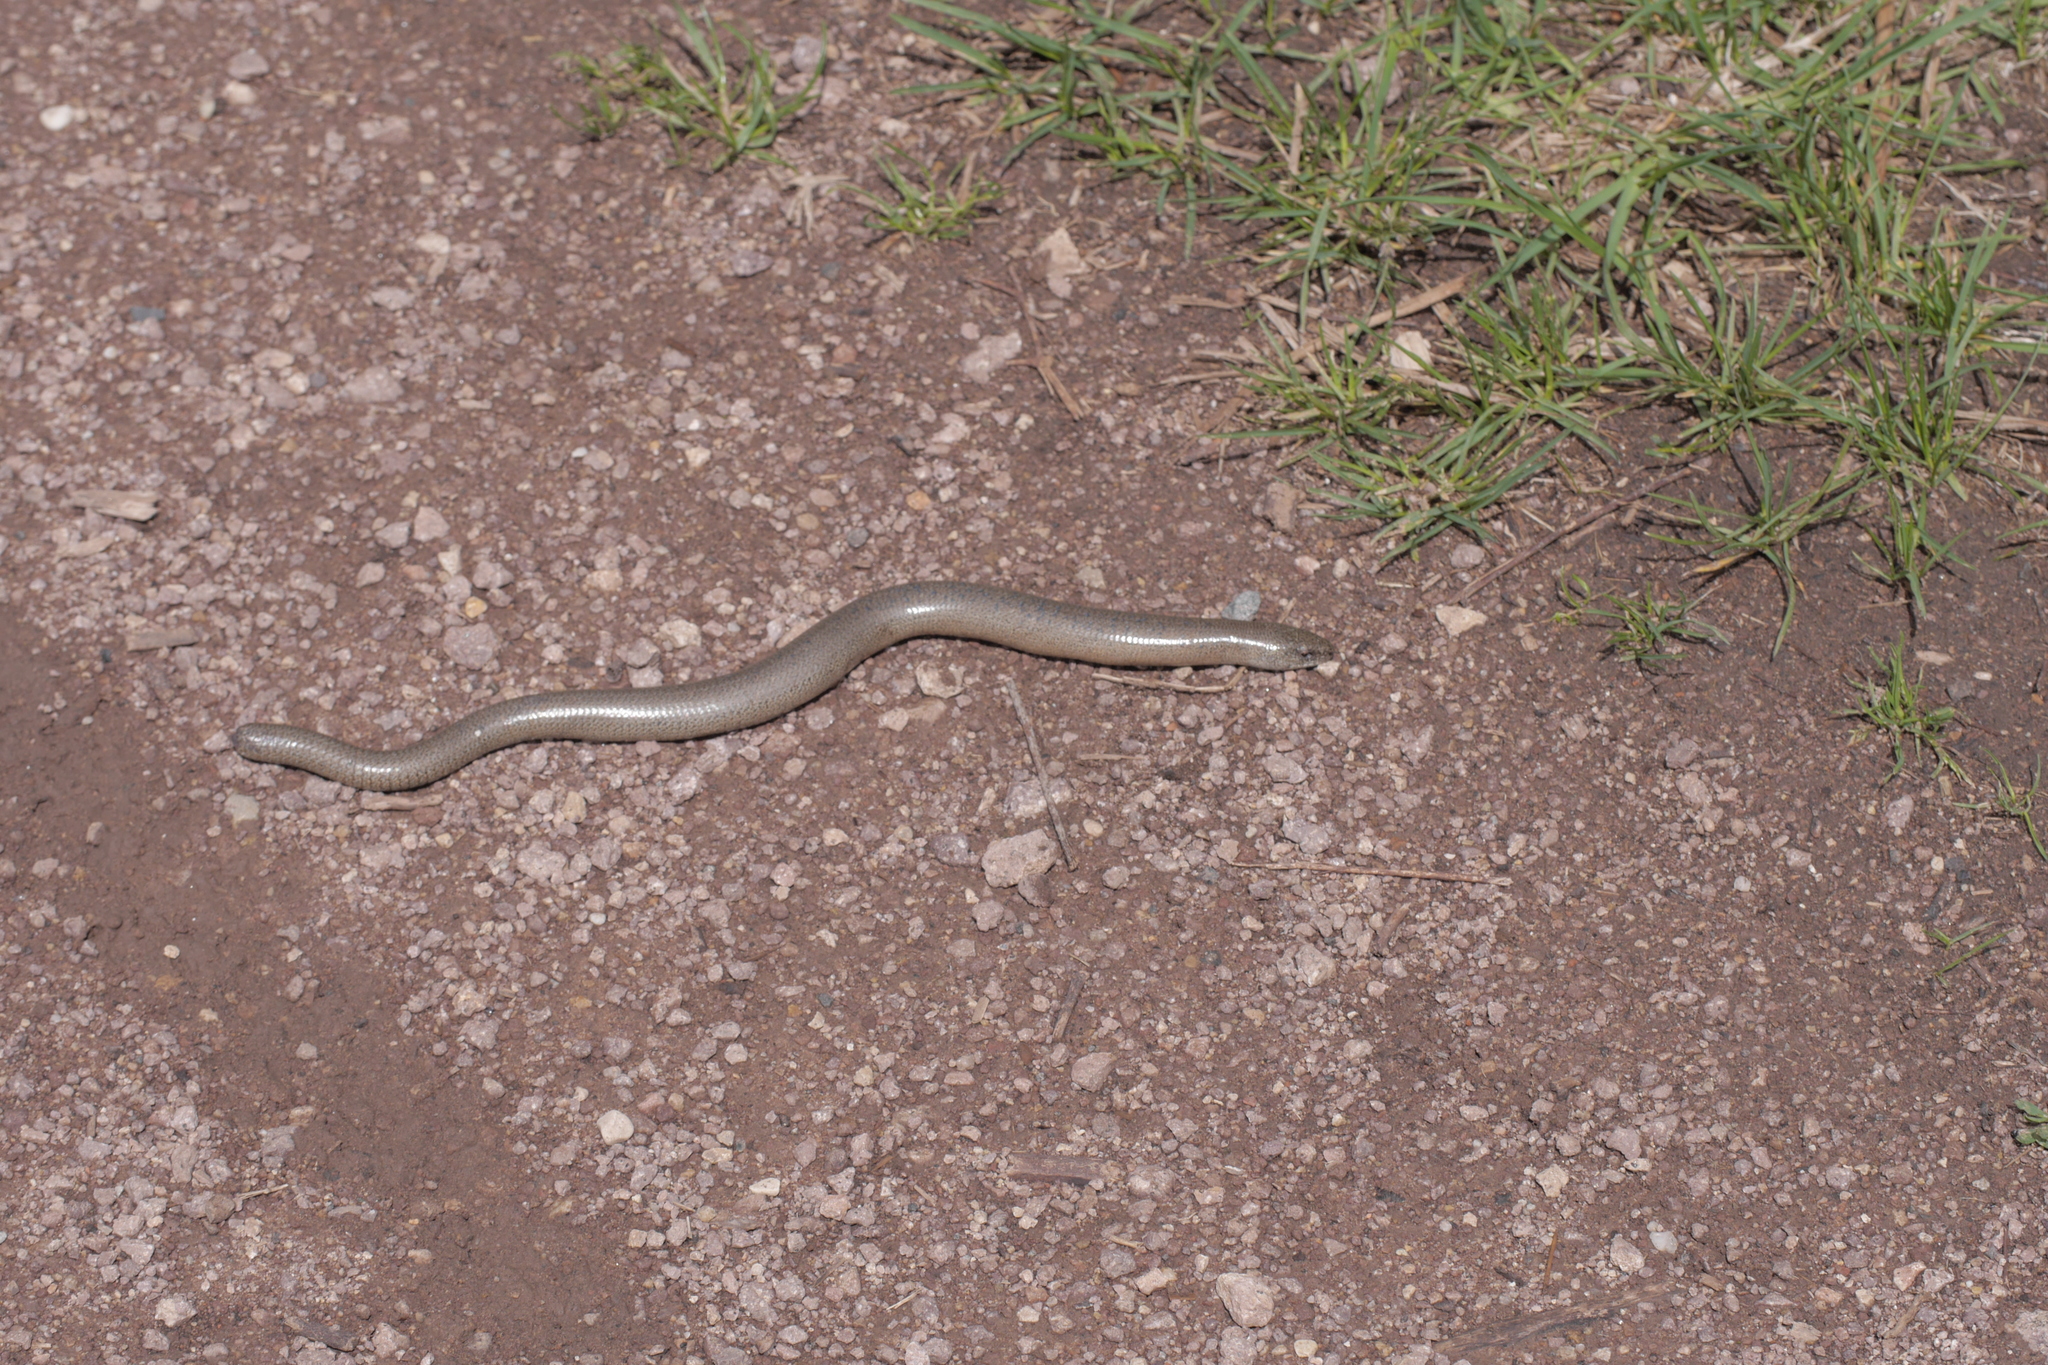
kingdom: Animalia
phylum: Chordata
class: Squamata
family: Anguidae
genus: Anguis
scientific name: Anguis fragilis
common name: Slow worm
